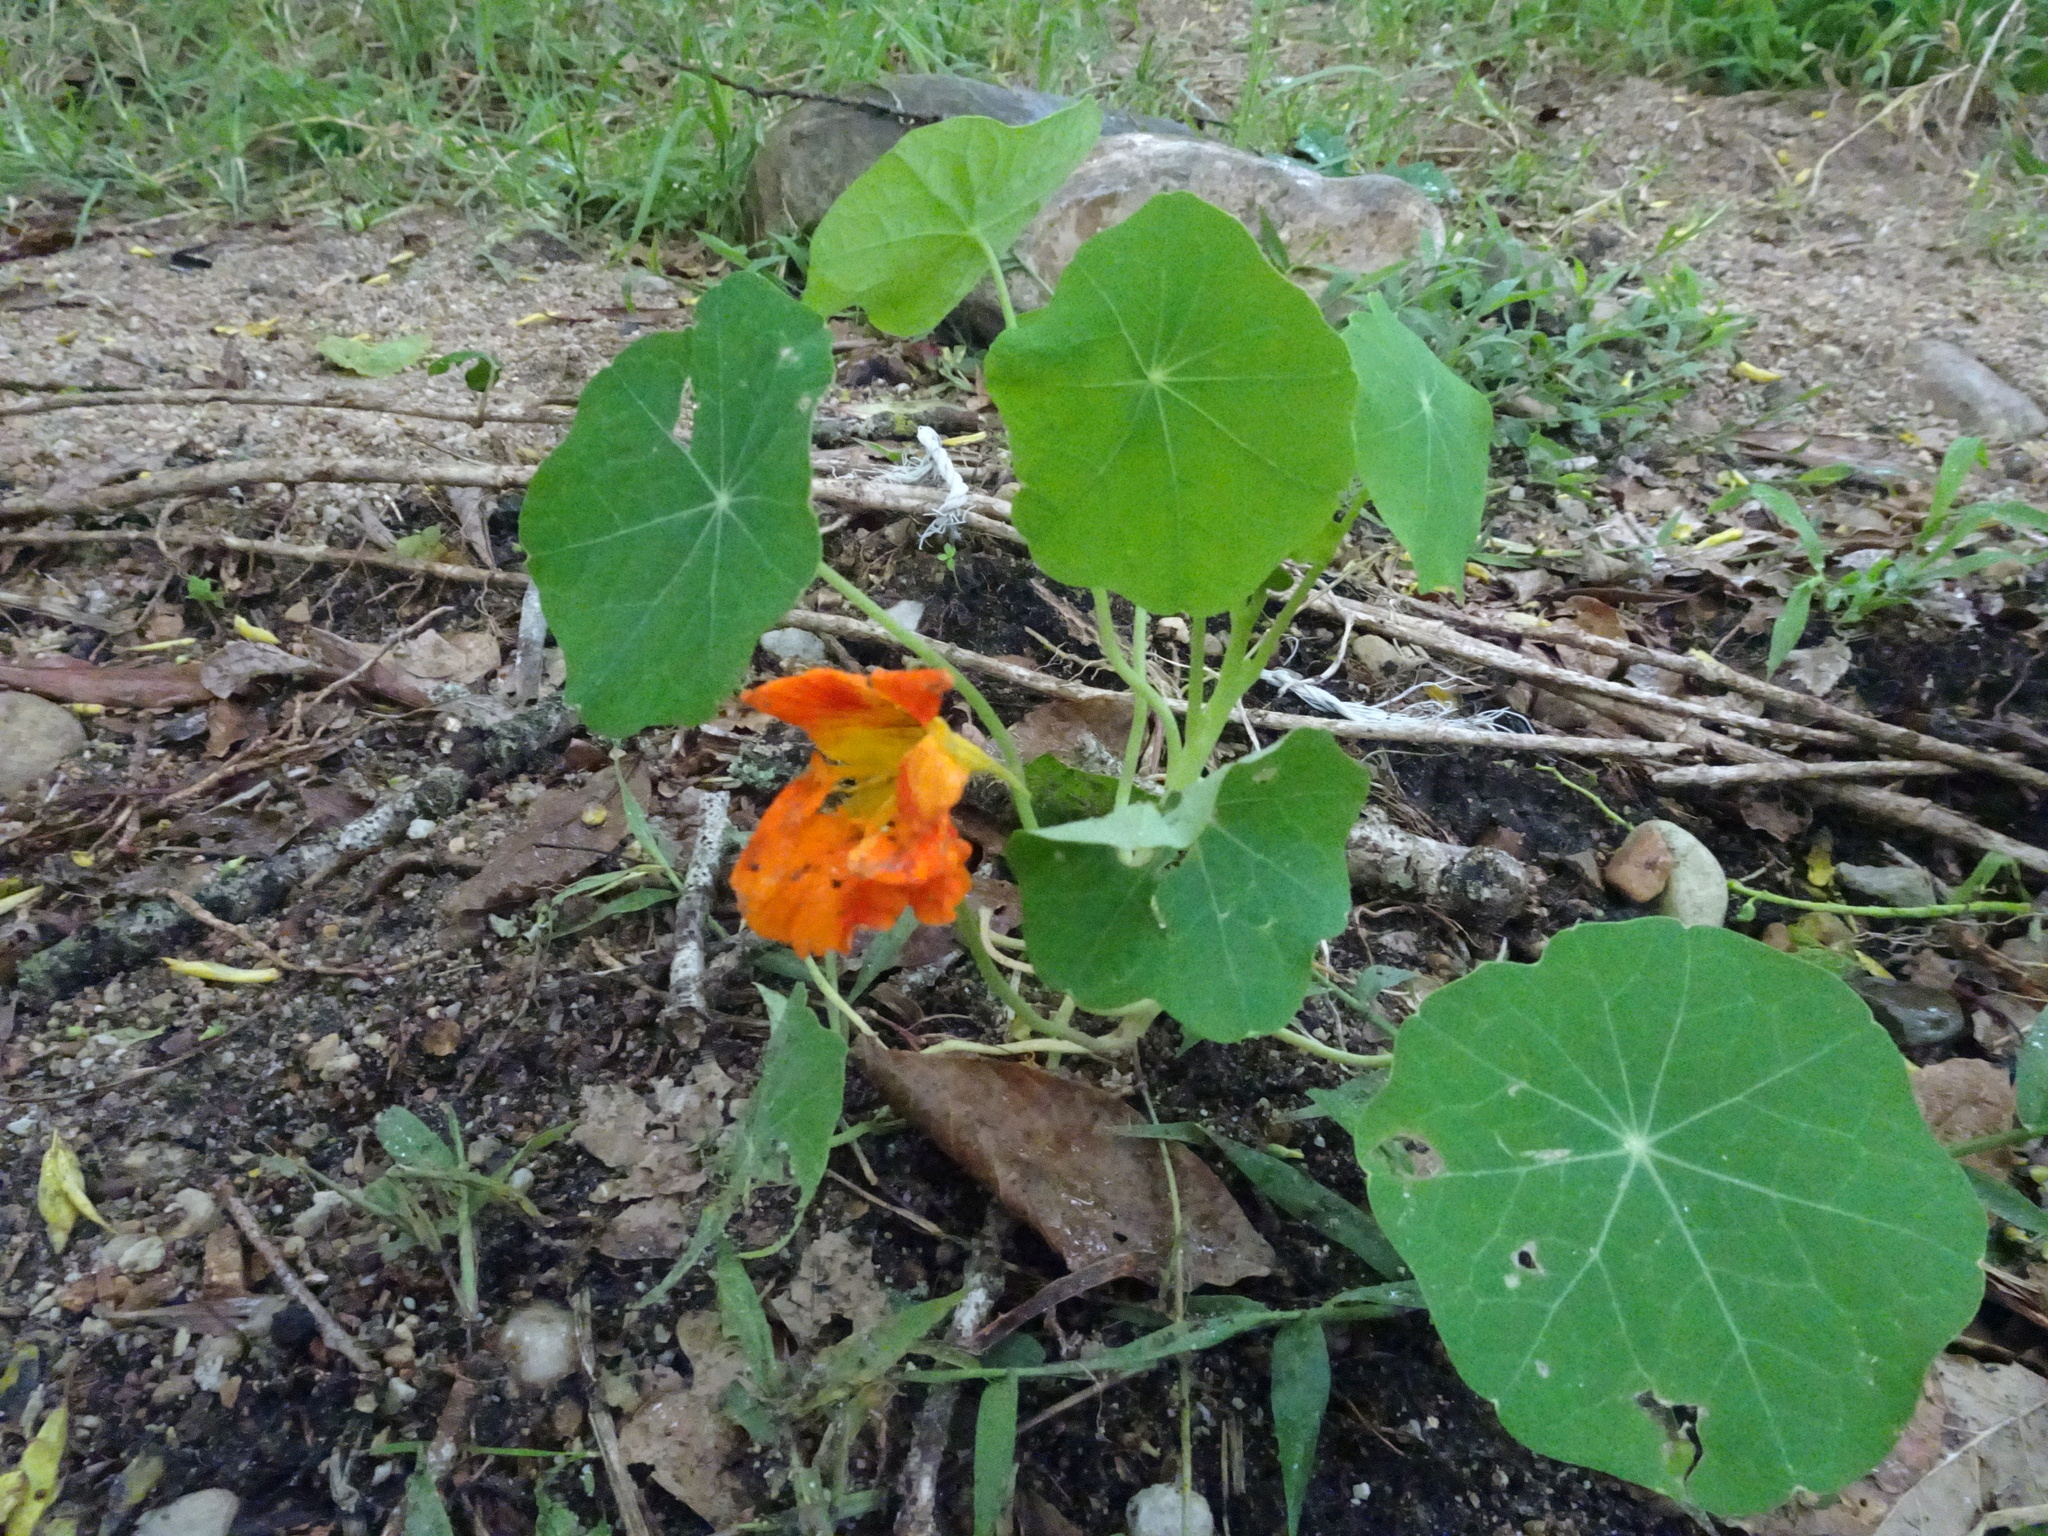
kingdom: Plantae
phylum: Tracheophyta
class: Magnoliopsida
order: Brassicales
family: Tropaeolaceae
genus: Tropaeolum
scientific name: Tropaeolum majus
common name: Nasturtium
